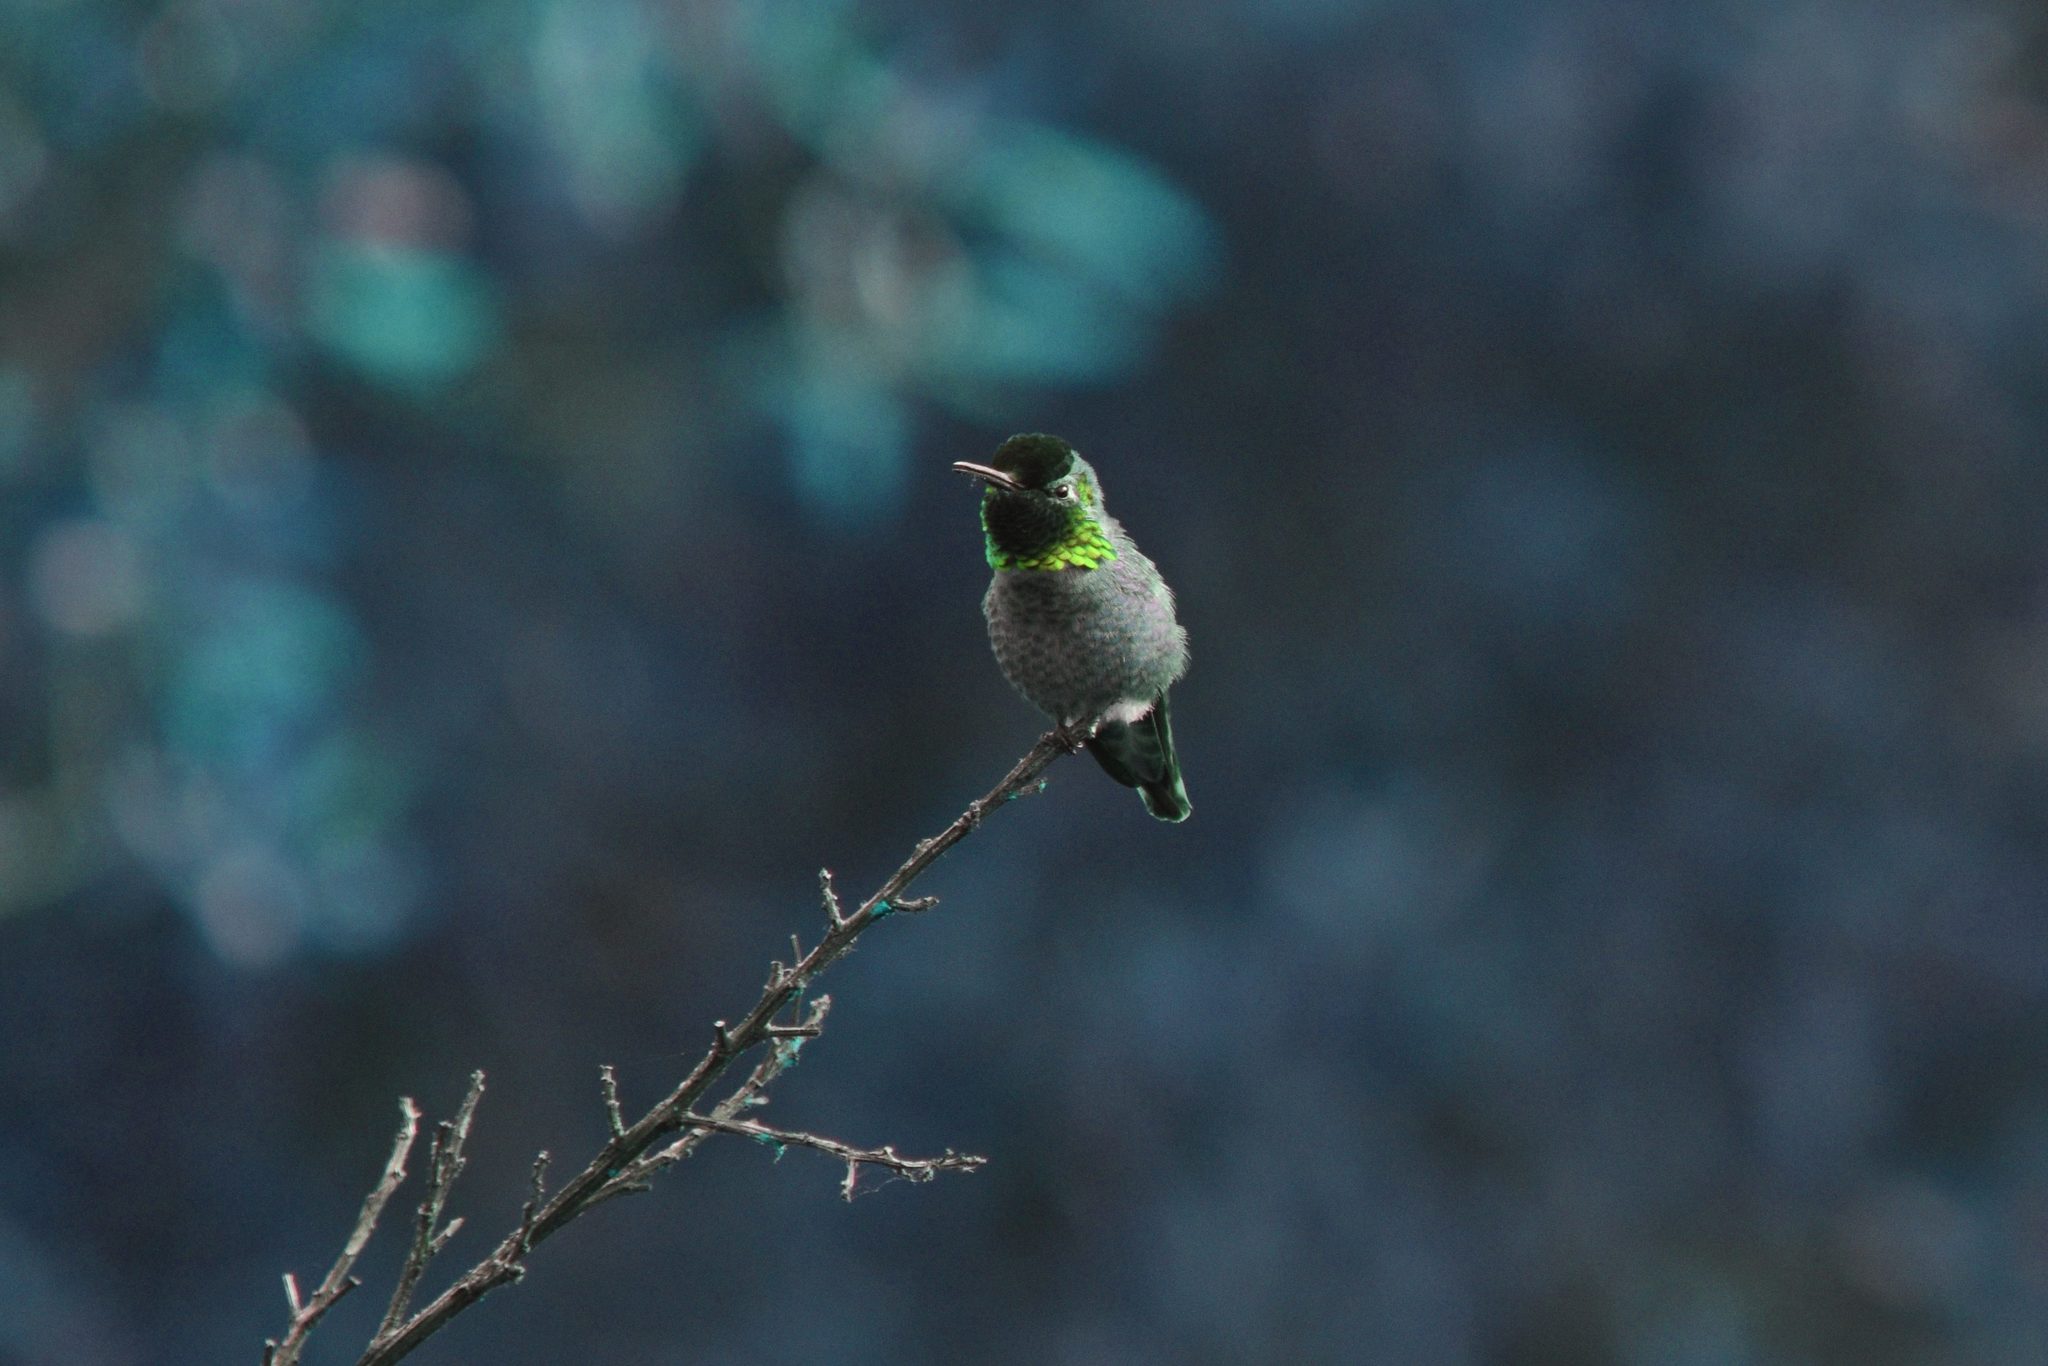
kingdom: Animalia
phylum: Chordata
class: Aves
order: Apodiformes
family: Trochilidae
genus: Calypte
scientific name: Calypte anna
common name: Anna's hummingbird
